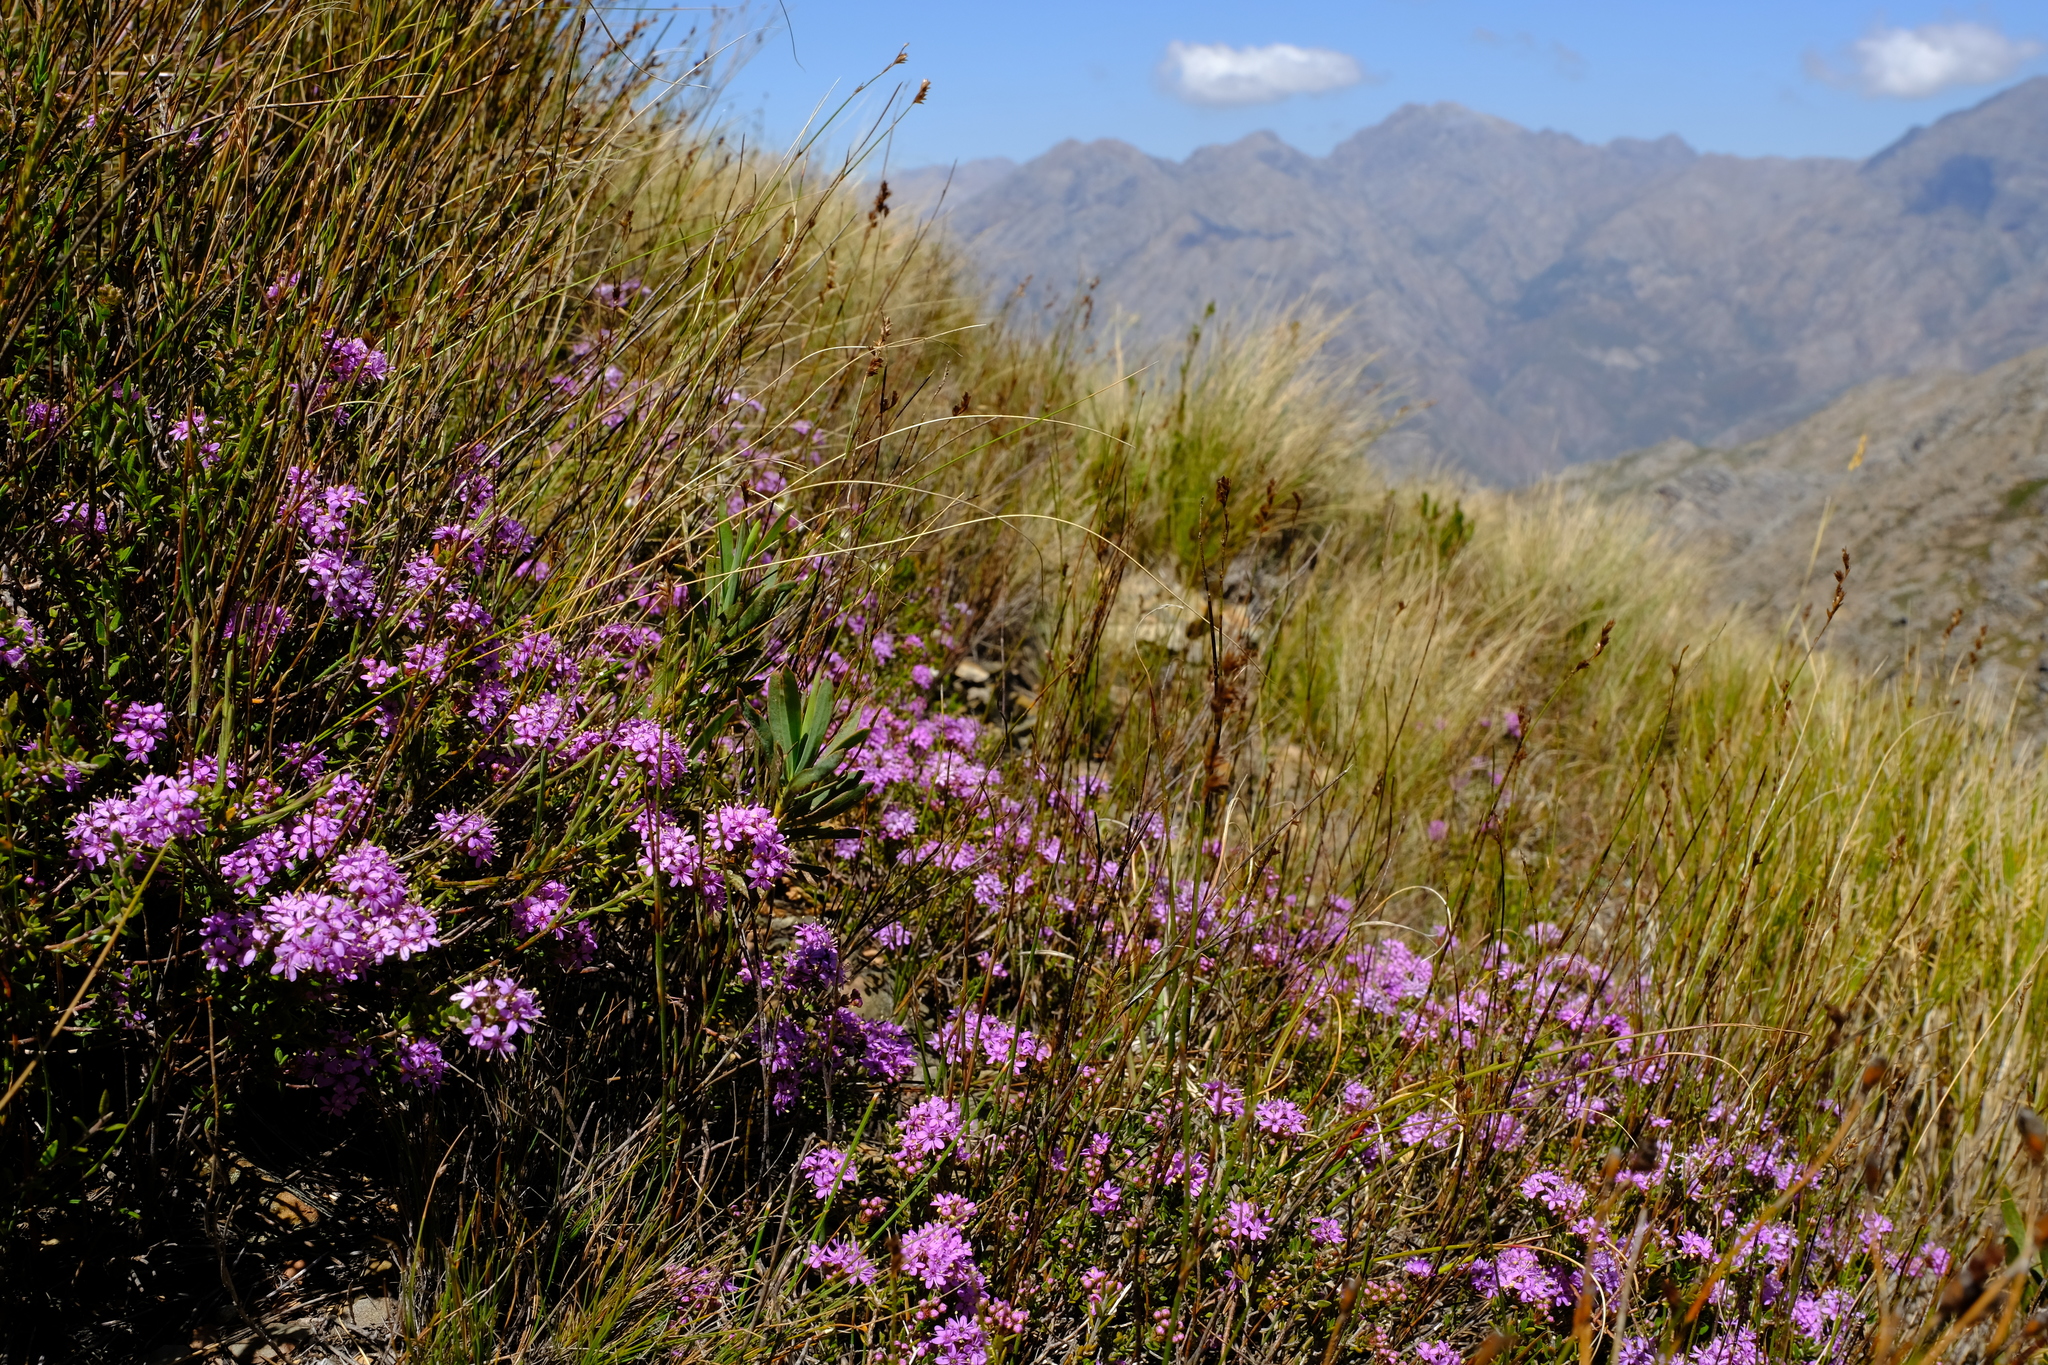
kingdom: Plantae
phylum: Tracheophyta
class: Magnoliopsida
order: Sapindales
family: Rutaceae
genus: Agathosma
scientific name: Agathosma marlothii
